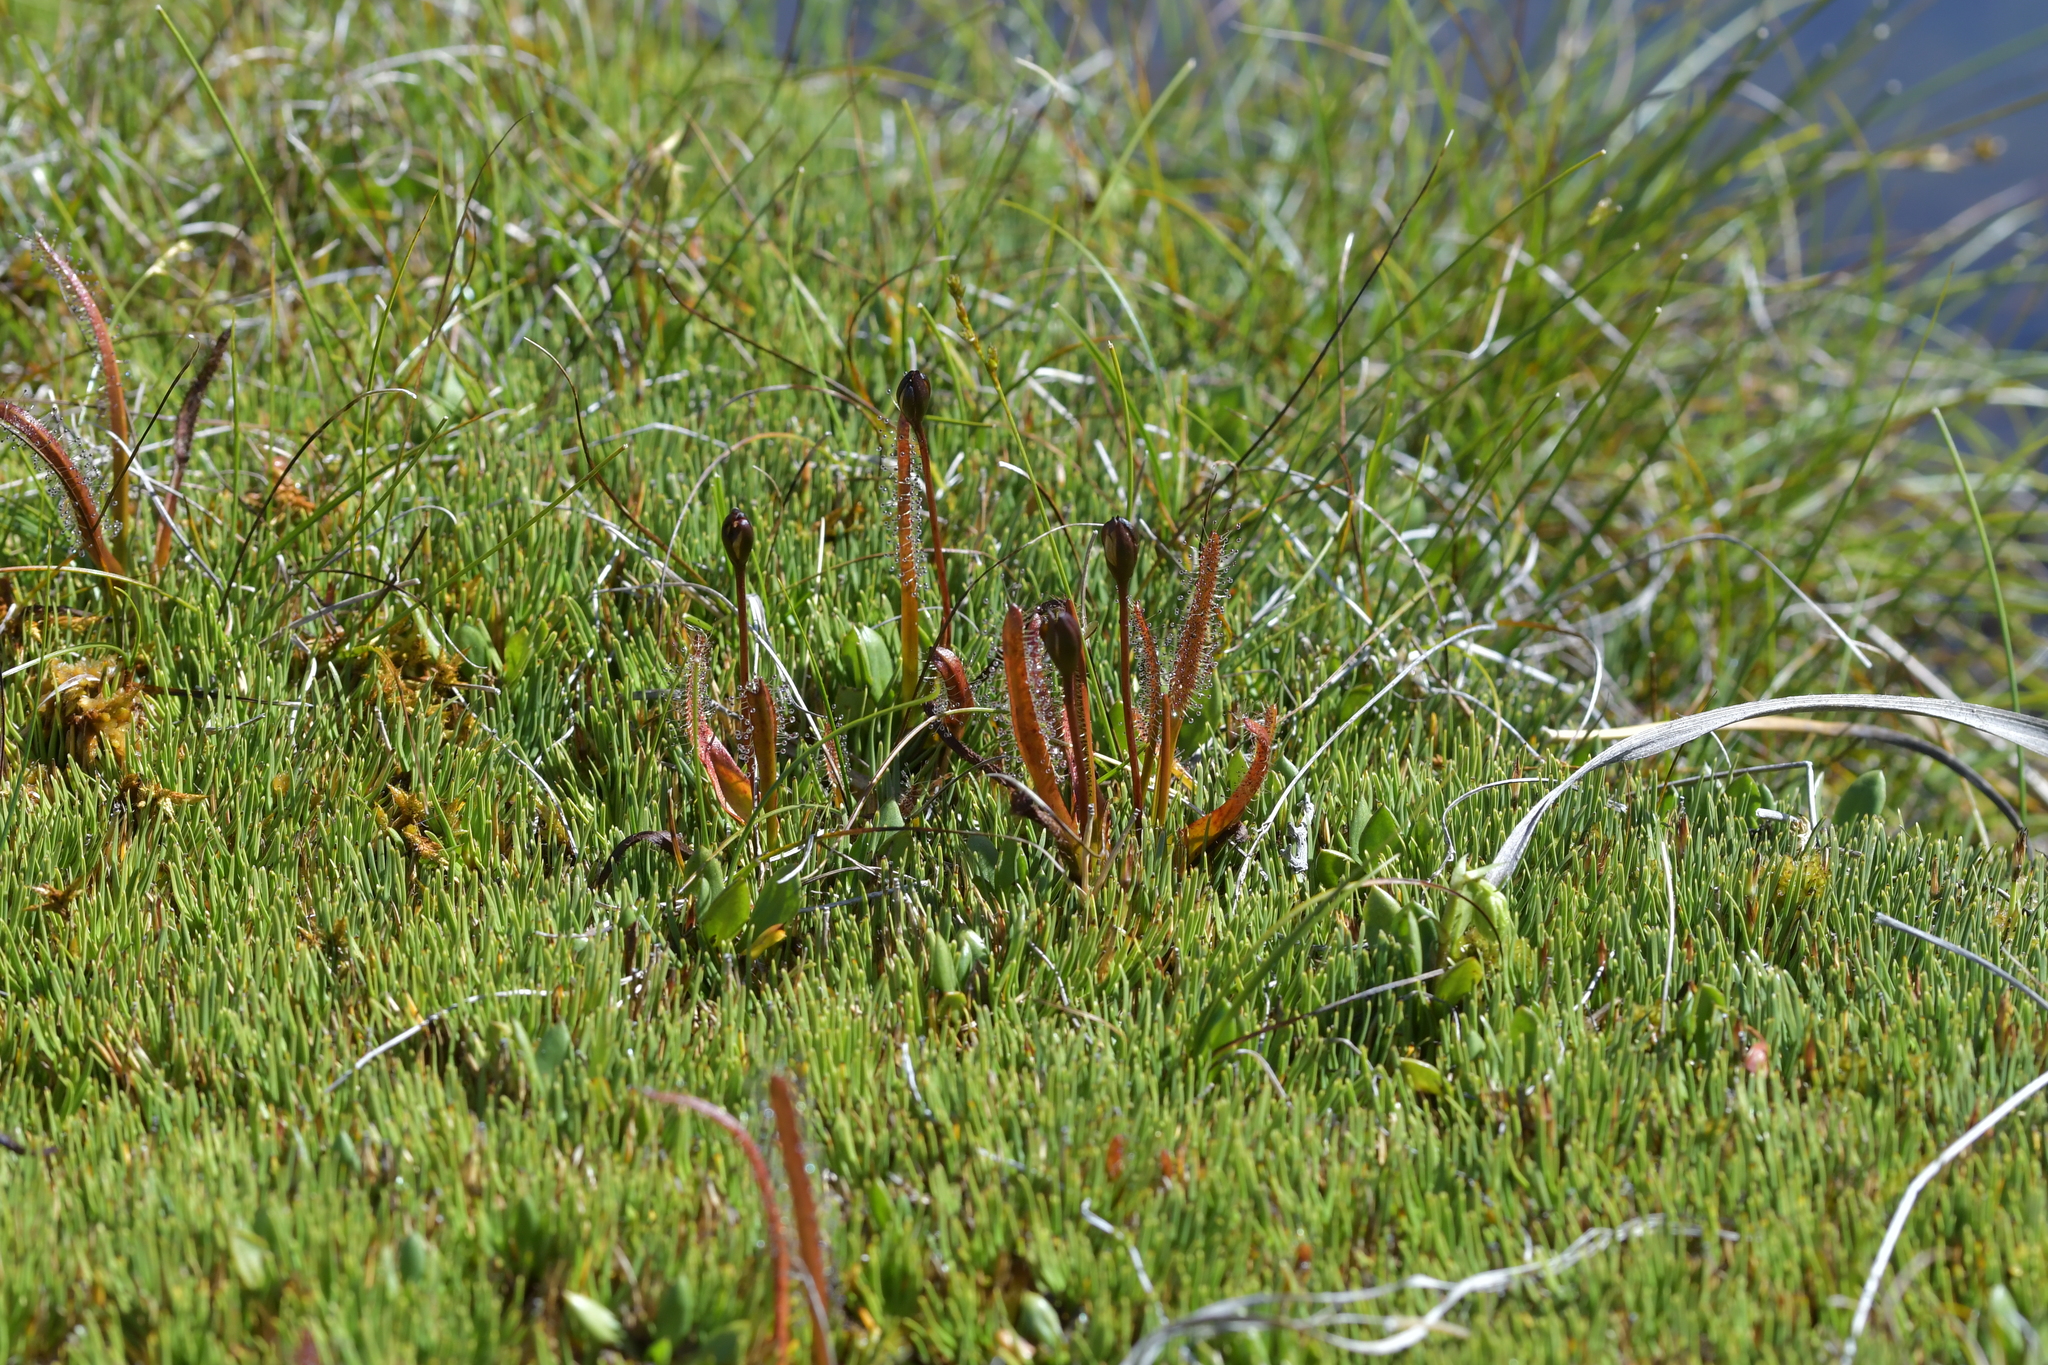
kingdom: Plantae
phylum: Tracheophyta
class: Magnoliopsida
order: Caryophyllales
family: Droseraceae
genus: Drosera
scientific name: Drosera arcturi
